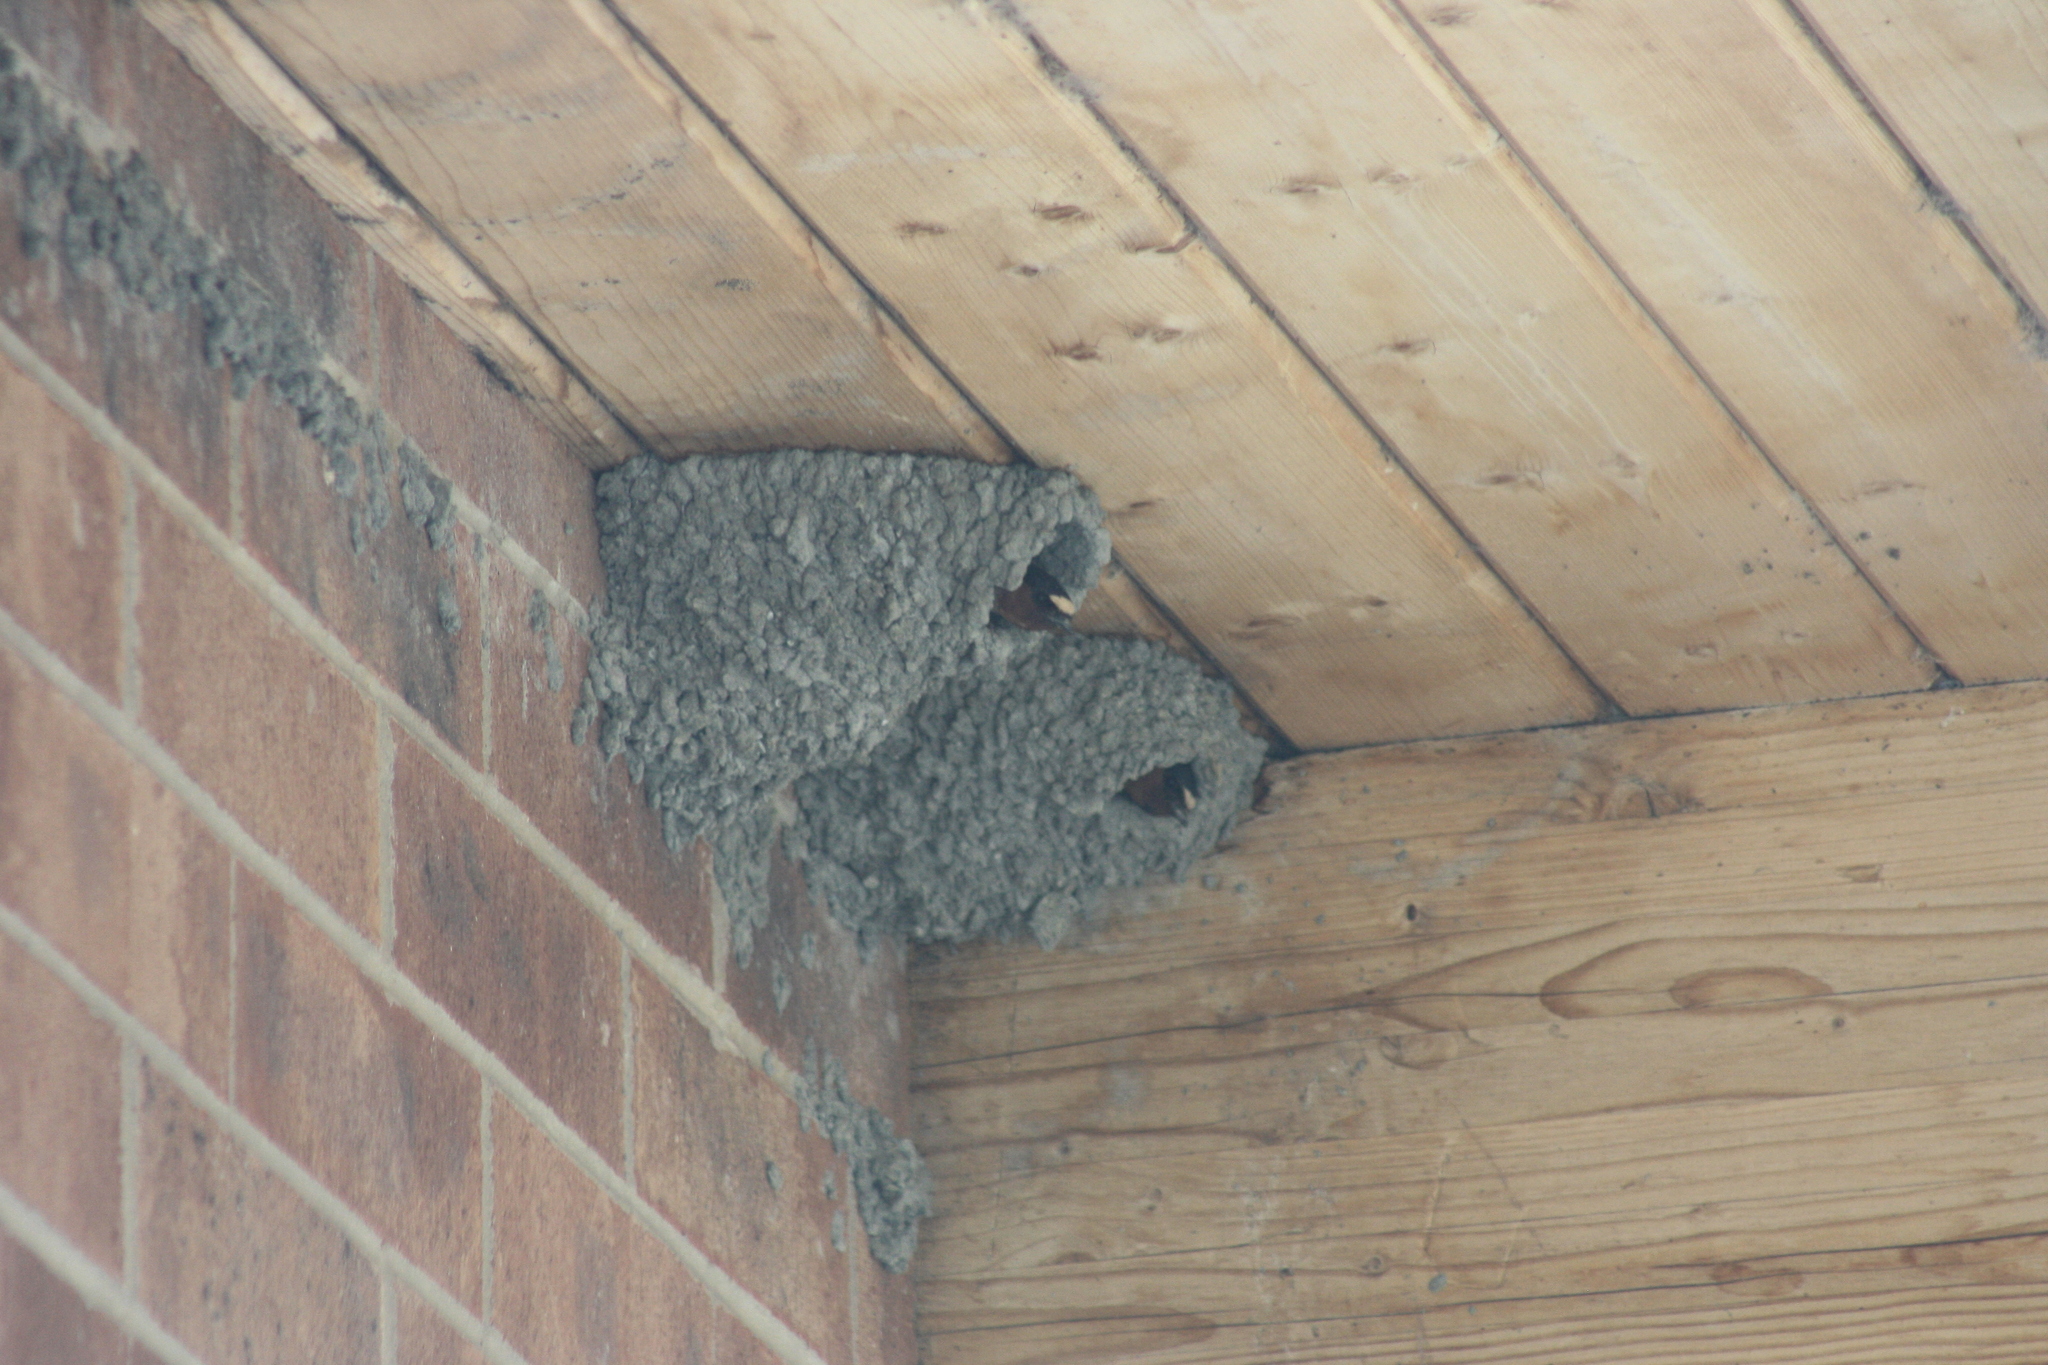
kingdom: Animalia
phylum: Chordata
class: Aves
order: Passeriformes
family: Hirundinidae
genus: Petrochelidon
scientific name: Petrochelidon pyrrhonota
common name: American cliff swallow
